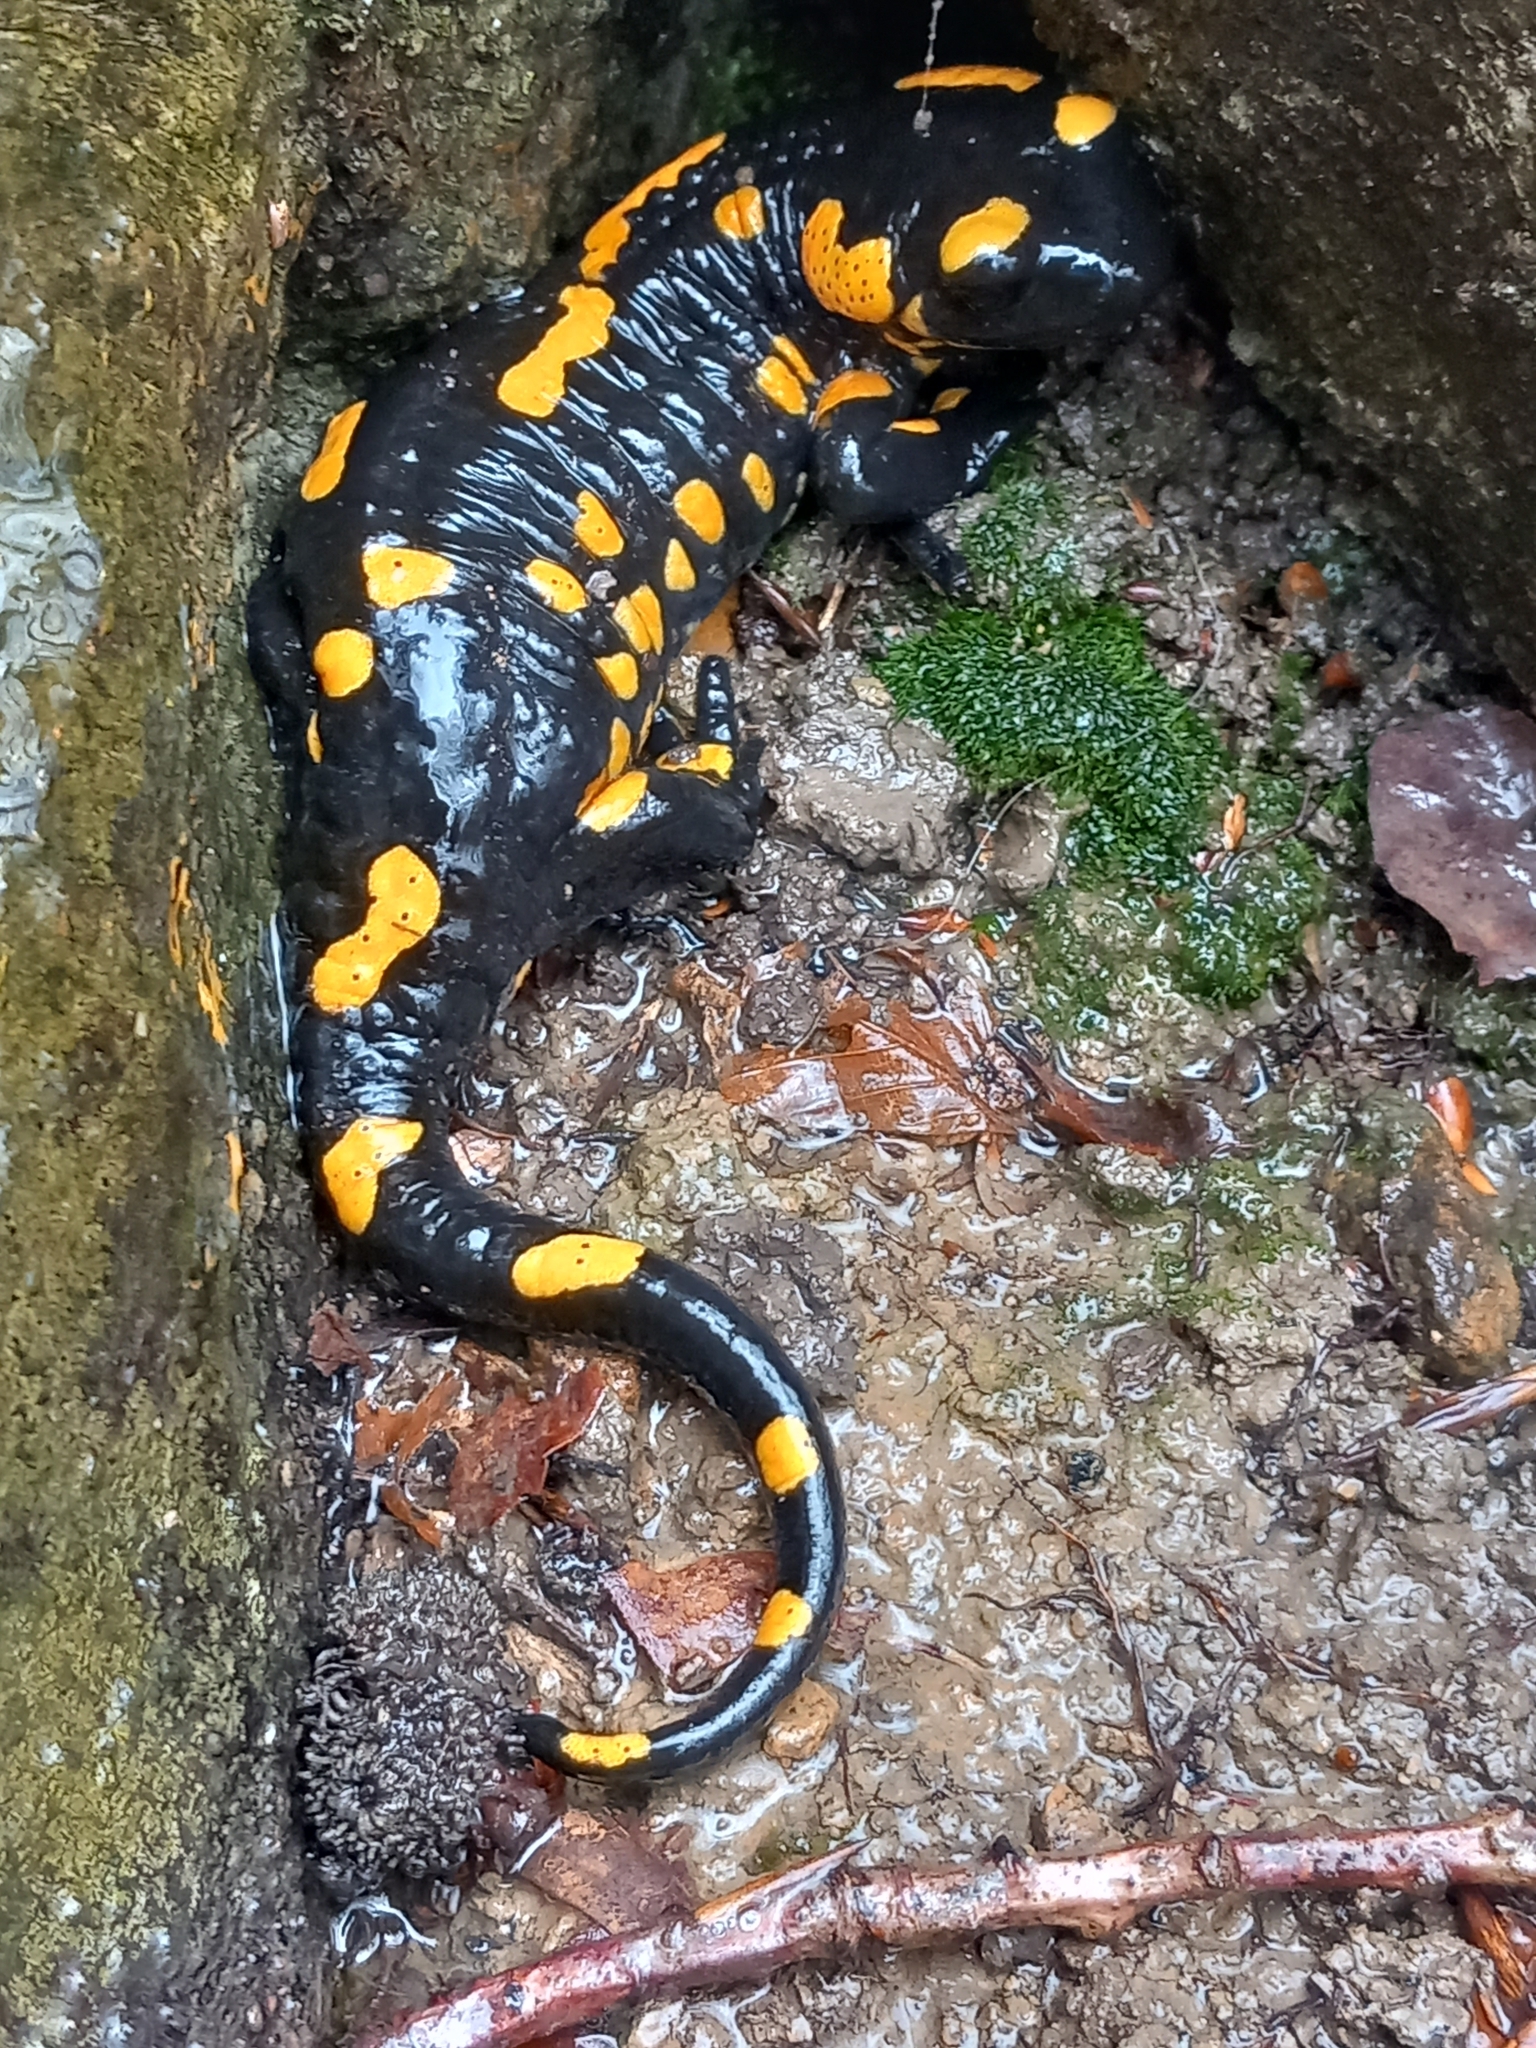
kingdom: Animalia
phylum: Chordata
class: Amphibia
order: Caudata
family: Salamandridae
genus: Salamandra
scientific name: Salamandra salamandra
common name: Fire salamander
